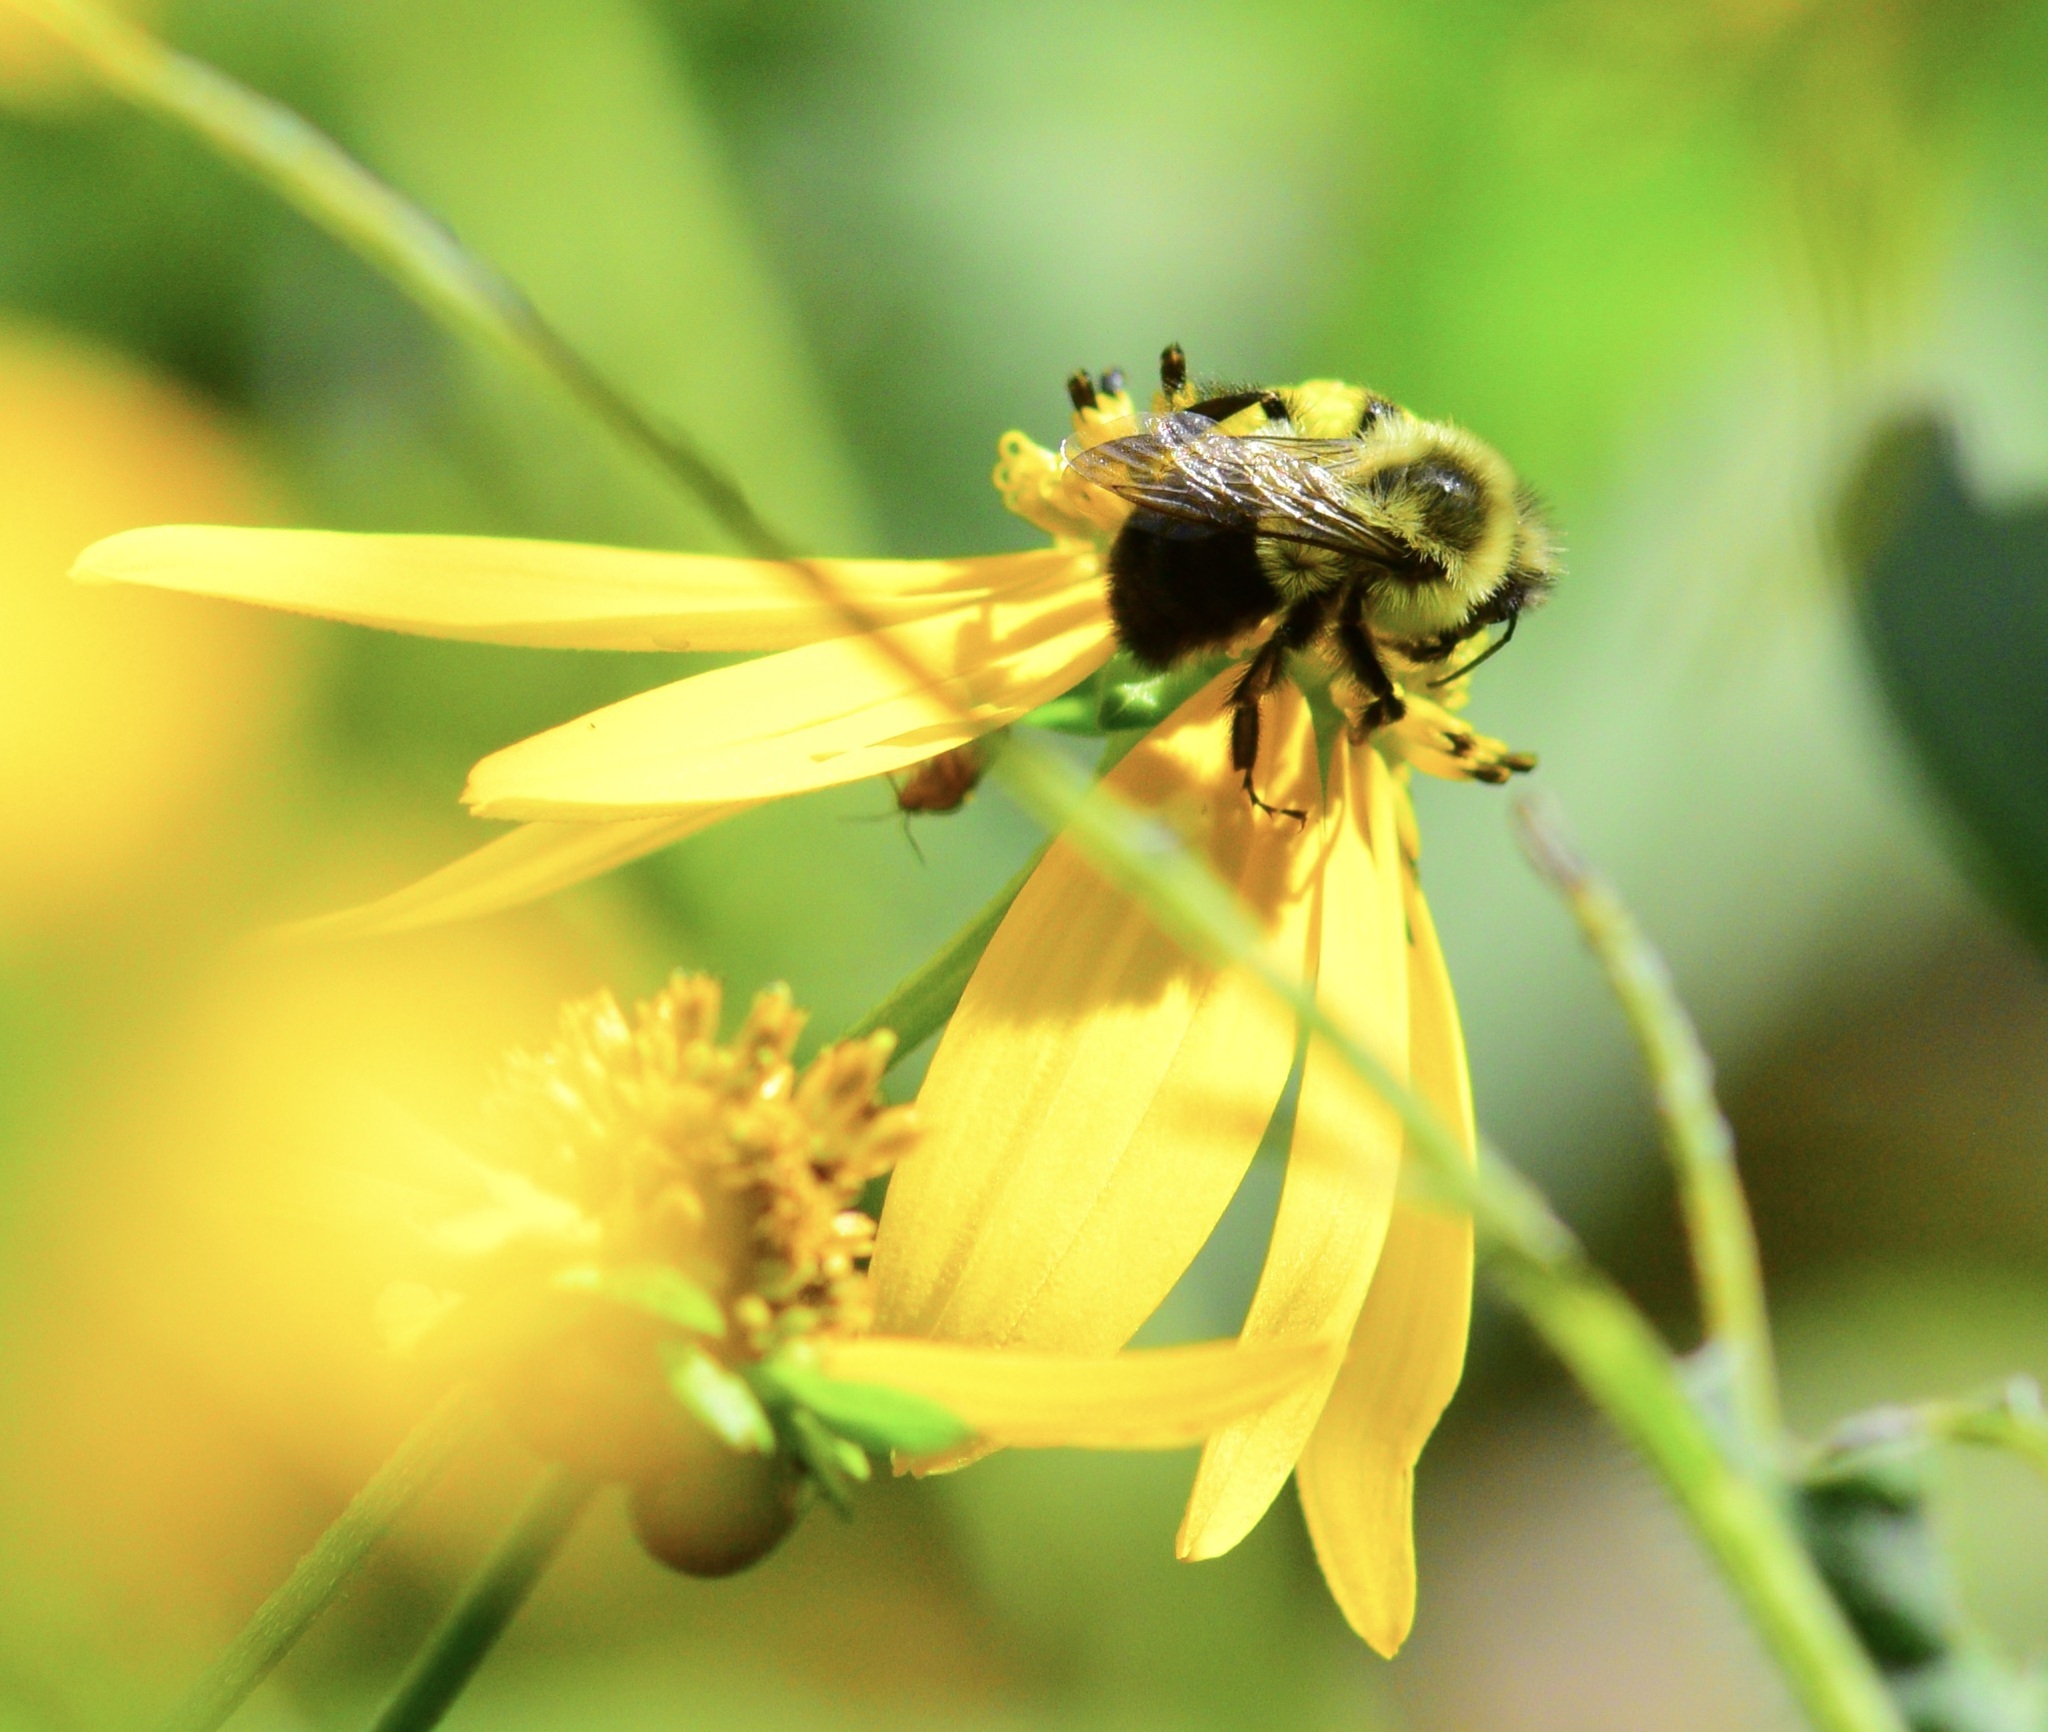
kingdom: Animalia
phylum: Arthropoda
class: Insecta
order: Hymenoptera
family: Apidae
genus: Bombus
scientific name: Bombus impatiens
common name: Common eastern bumble bee
